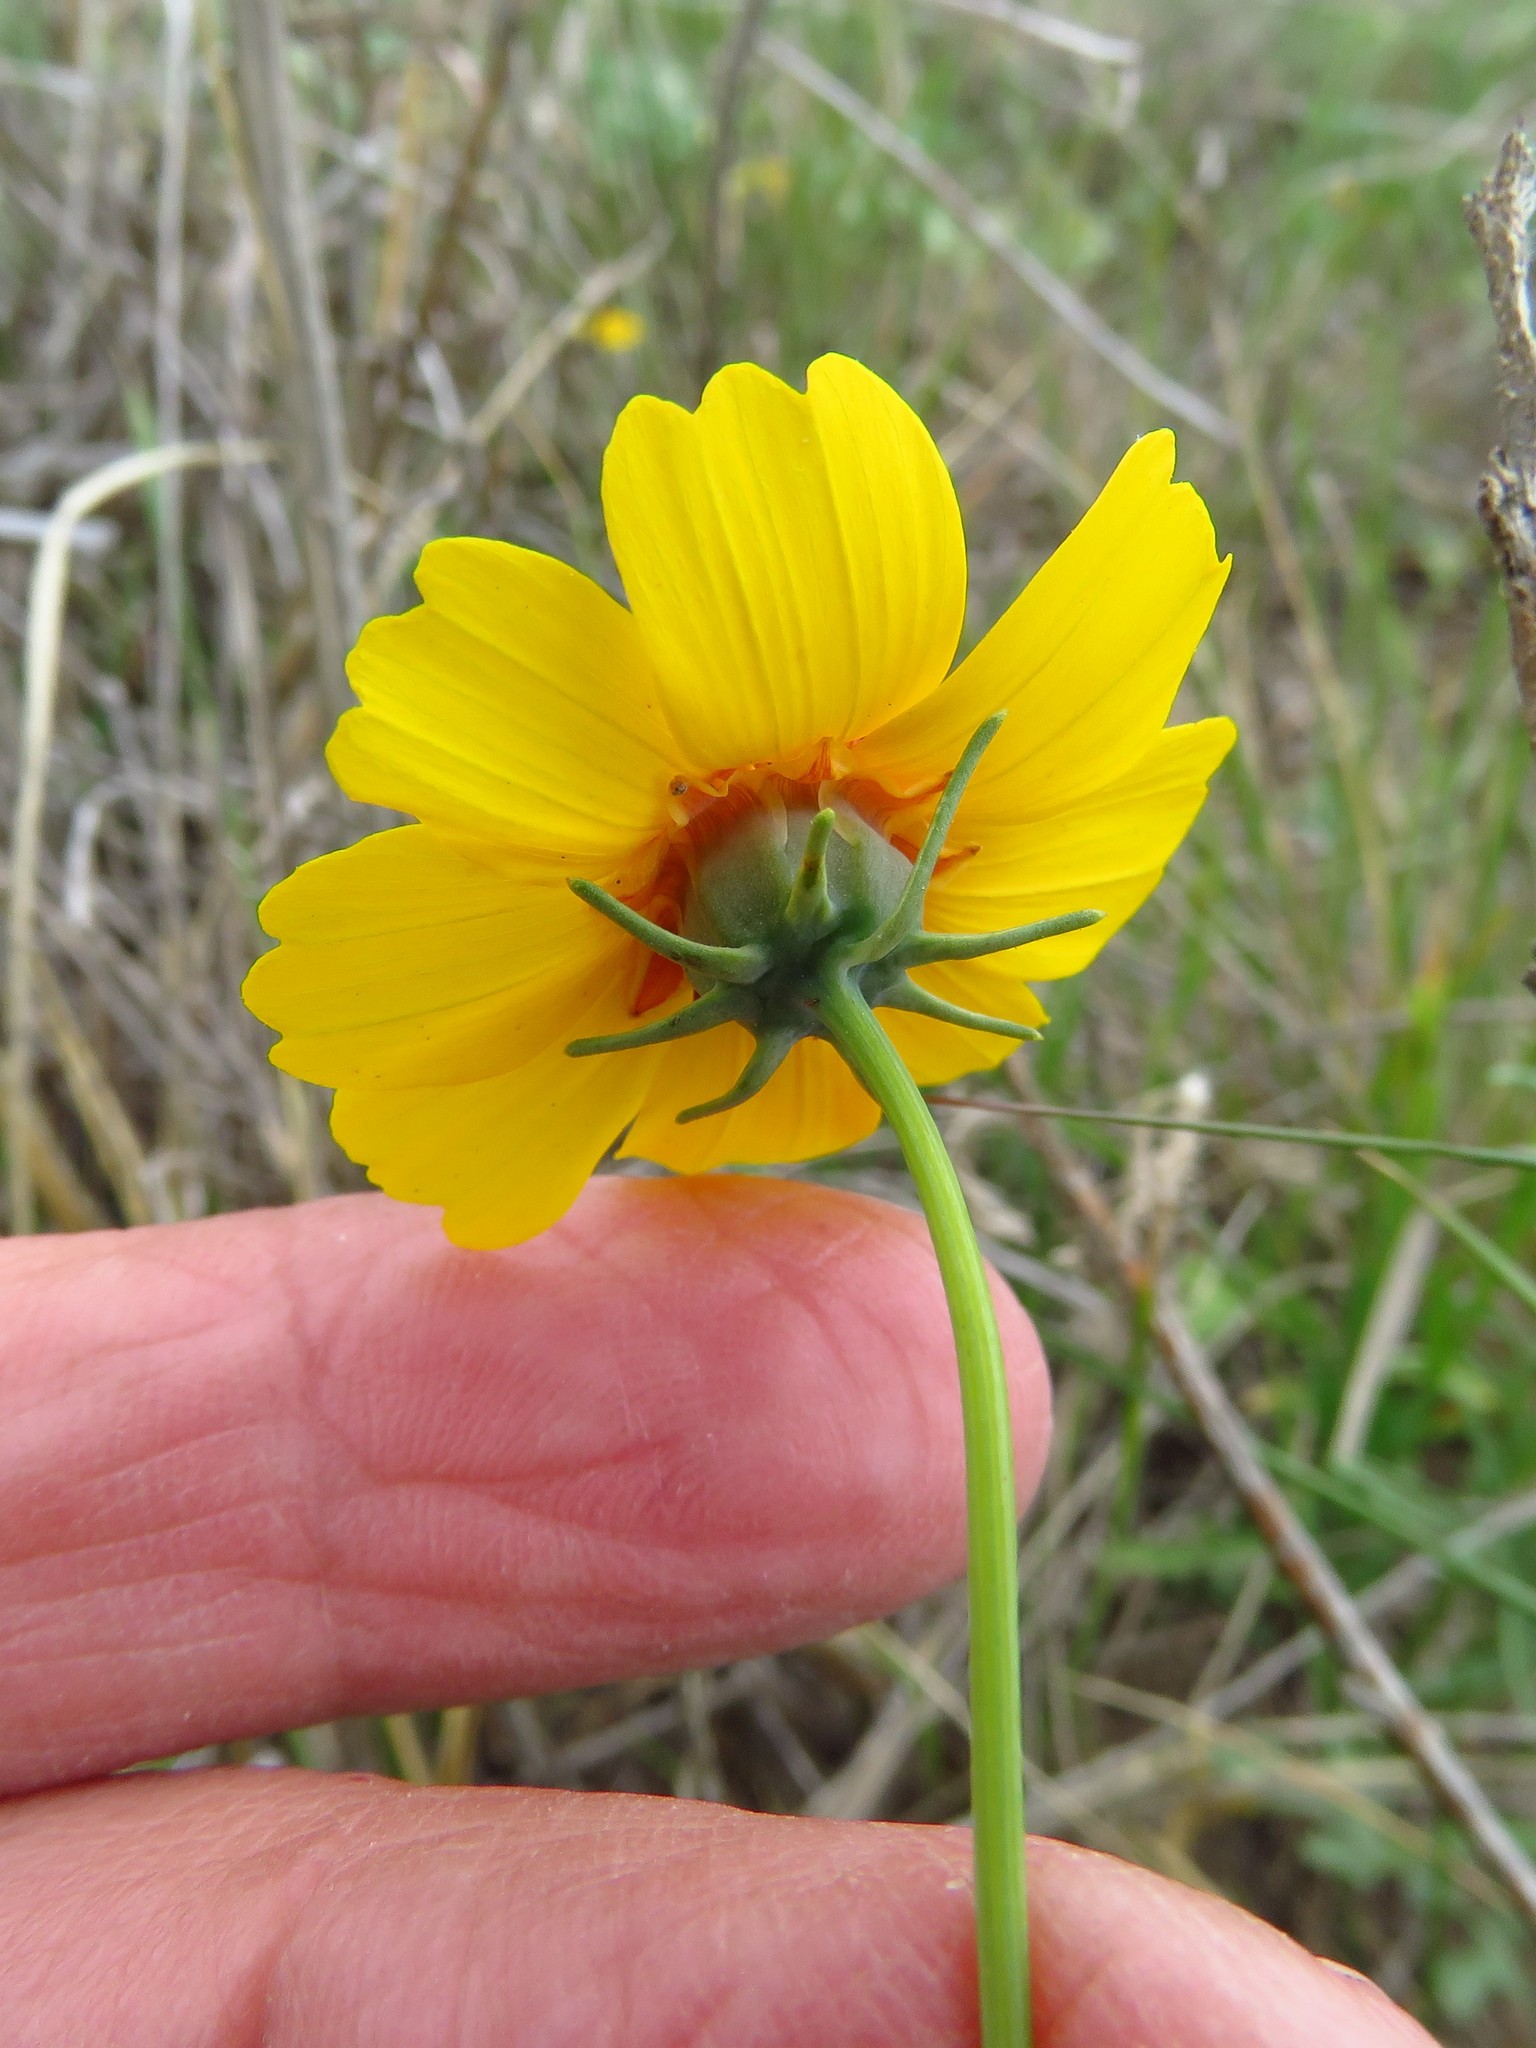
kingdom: Plantae
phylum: Tracheophyta
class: Magnoliopsida
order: Asterales
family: Asteraceae
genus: Thelesperma
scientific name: Thelesperma filifolium
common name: Stiff greenthread
